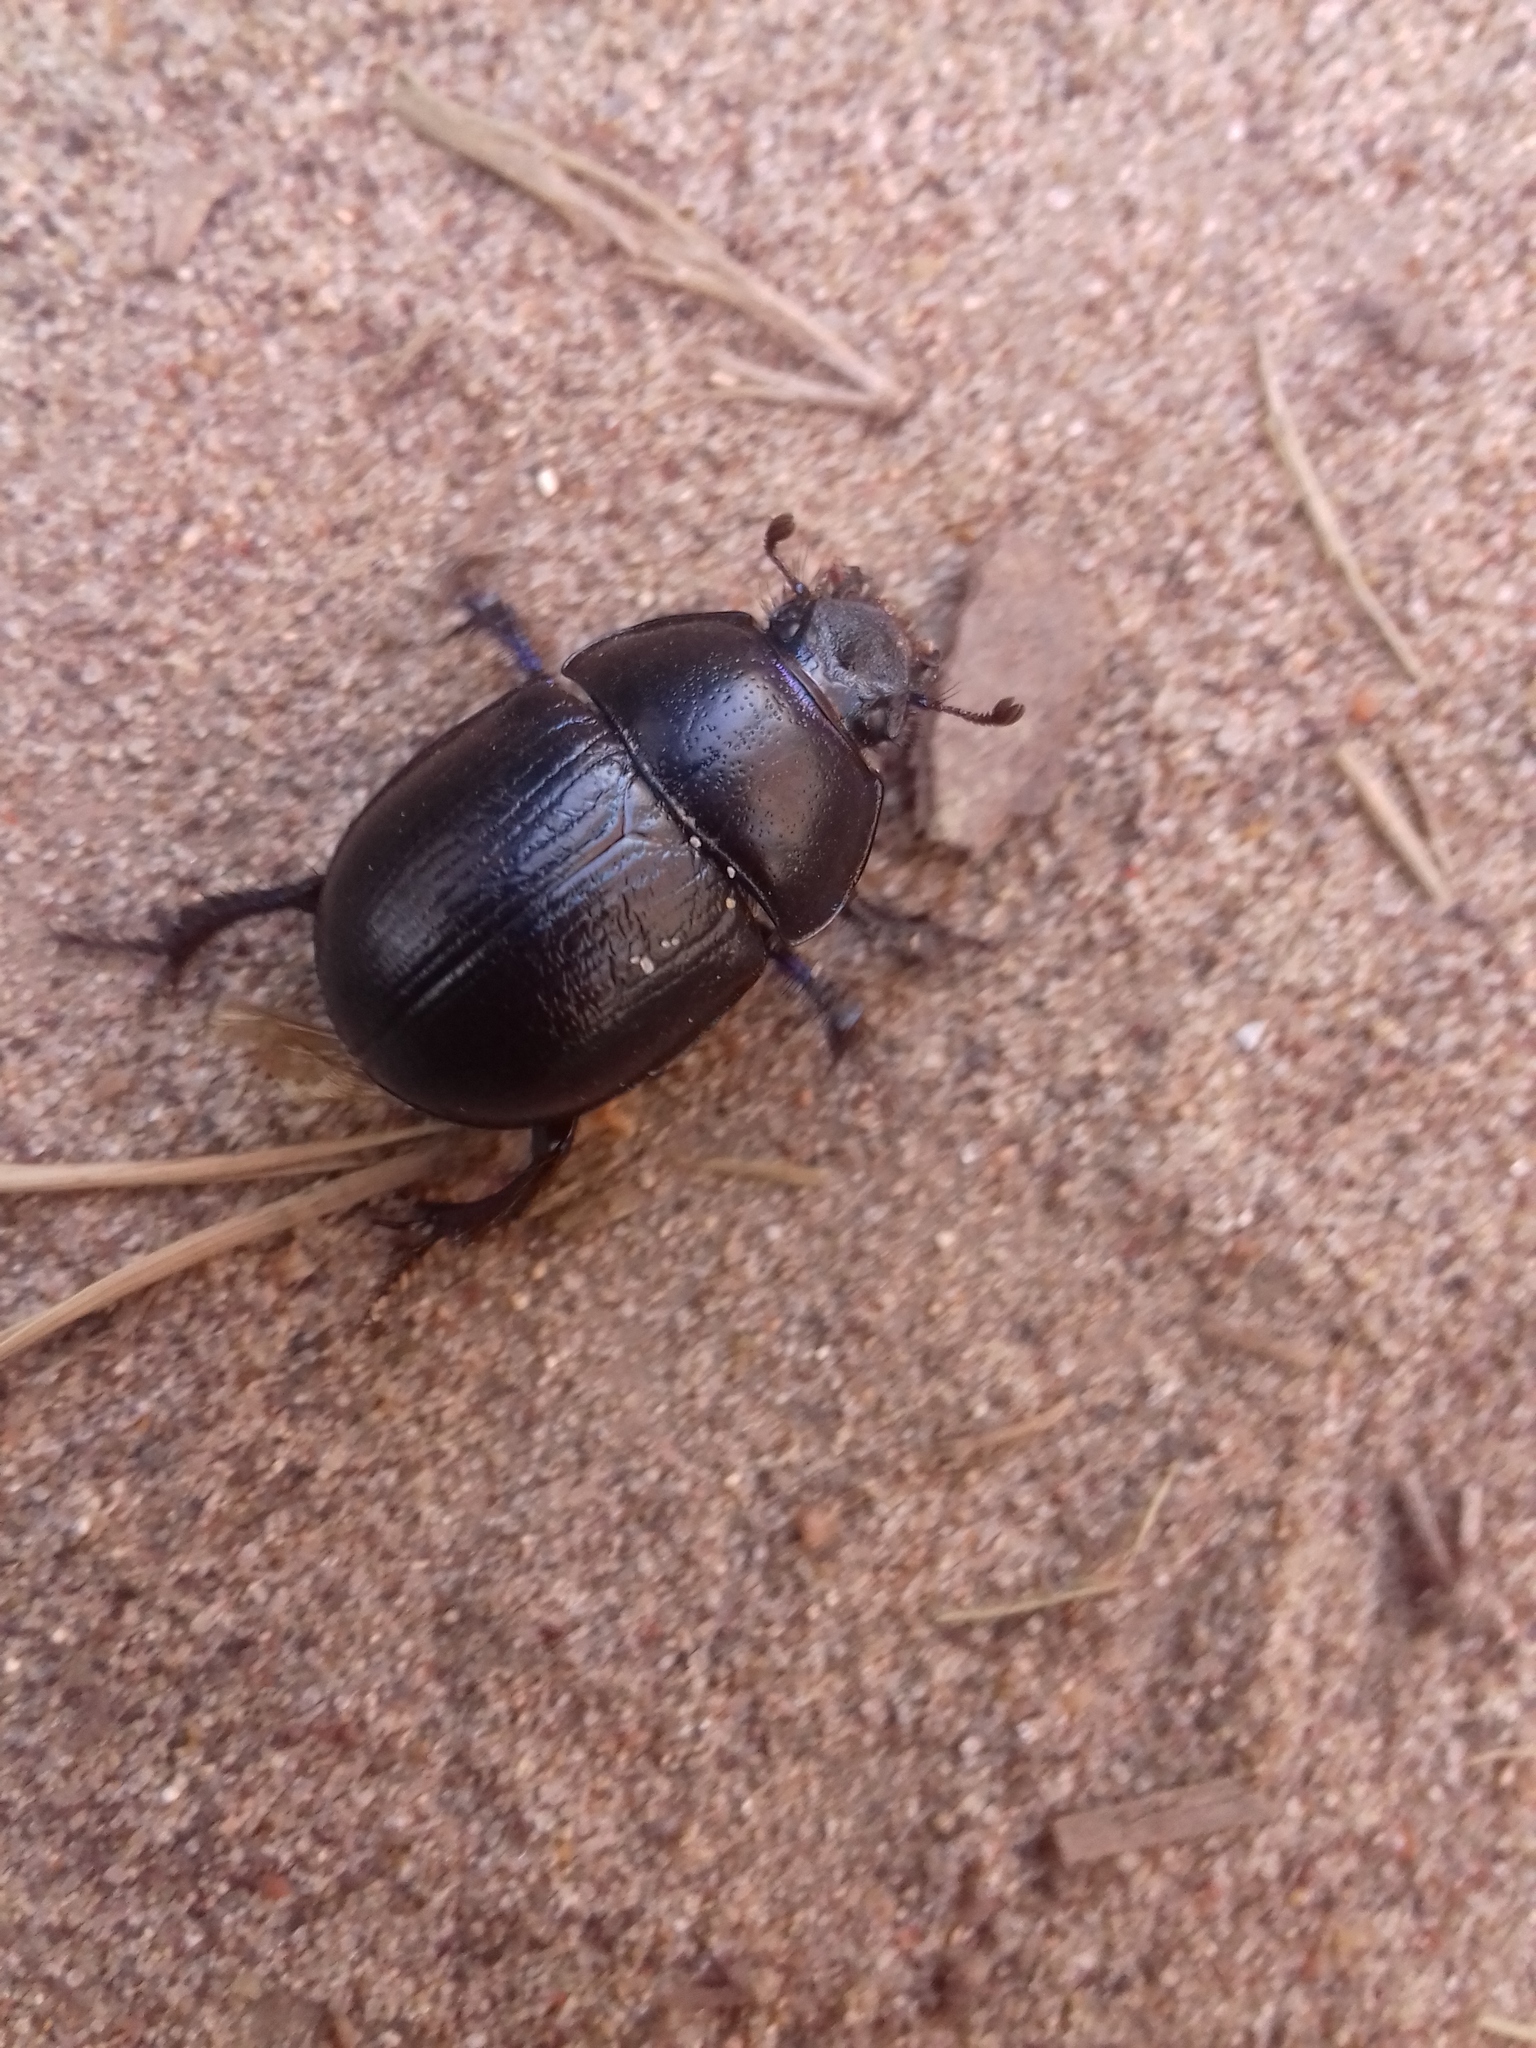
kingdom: Animalia
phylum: Arthropoda
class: Insecta
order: Coleoptera
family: Geotrupidae
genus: Anoplotrupes
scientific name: Anoplotrupes stercorosus
